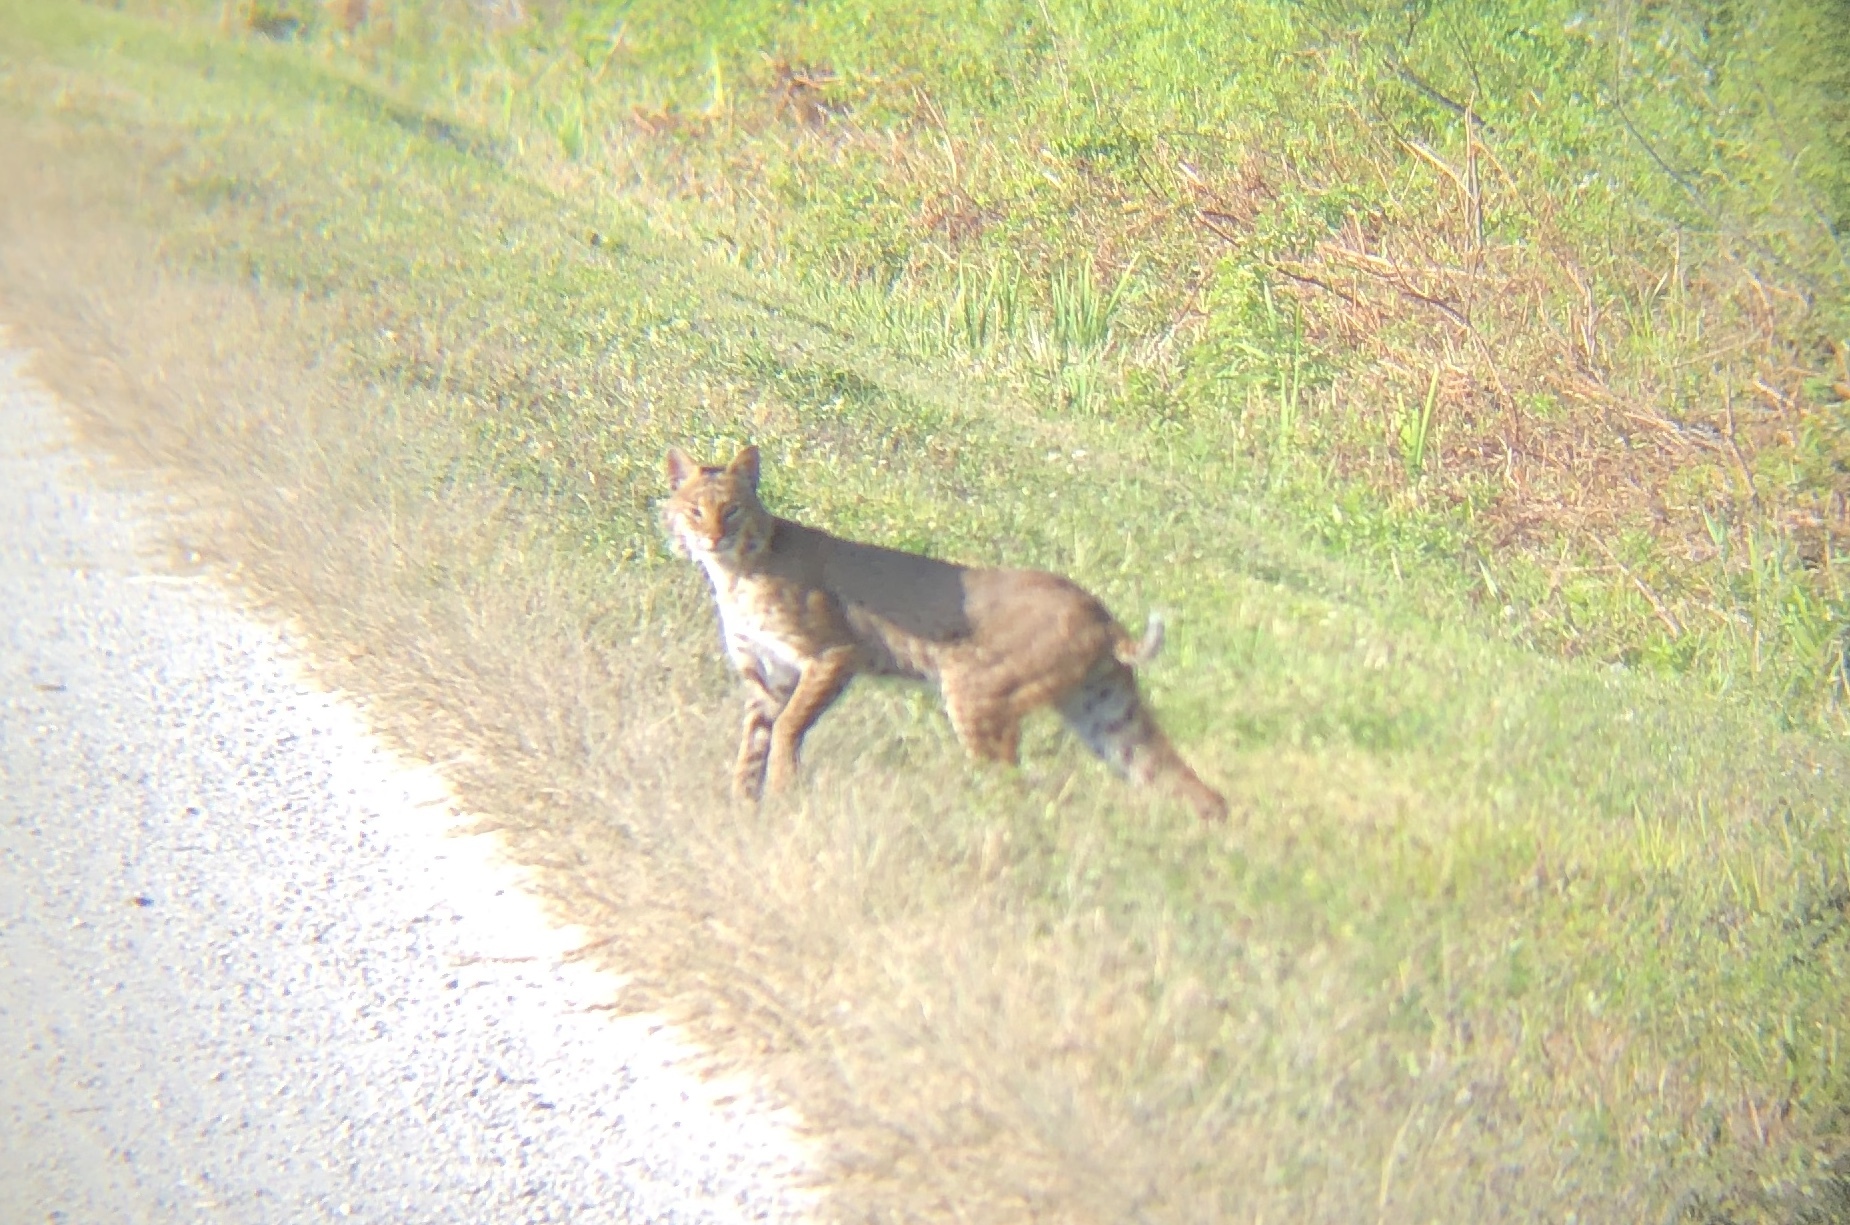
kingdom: Animalia
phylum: Chordata
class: Mammalia
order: Carnivora
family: Felidae
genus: Lynx
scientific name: Lynx rufus
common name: Bobcat
